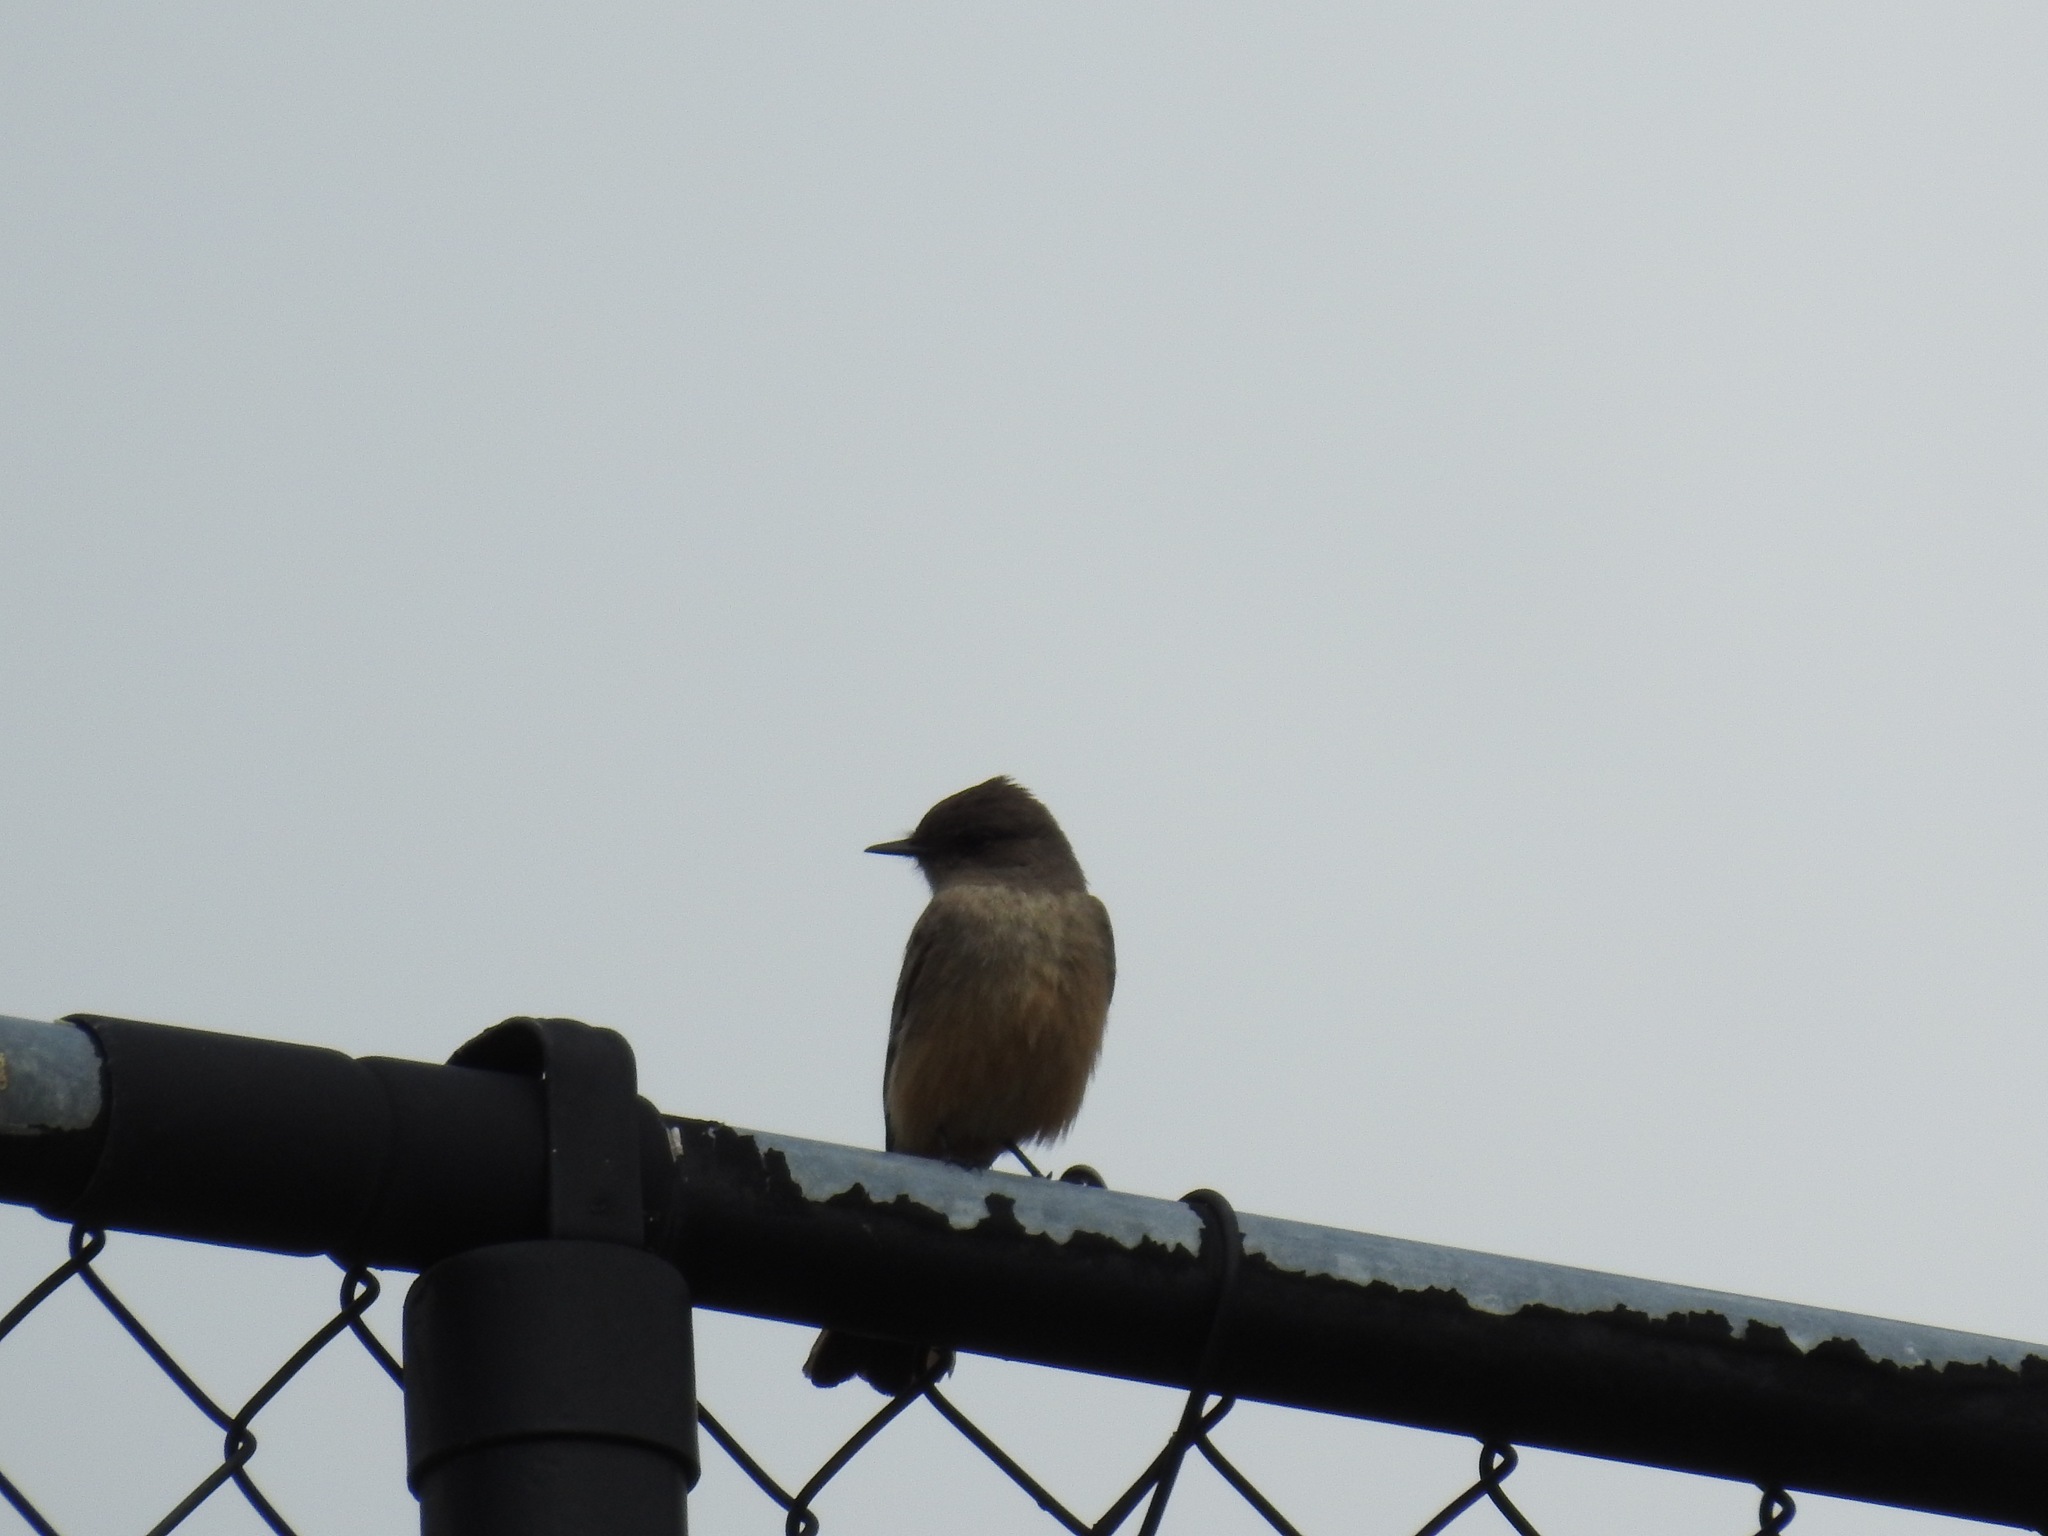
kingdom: Animalia
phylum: Chordata
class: Aves
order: Passeriformes
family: Tyrannidae
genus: Sayornis
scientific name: Sayornis saya
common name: Say's phoebe
